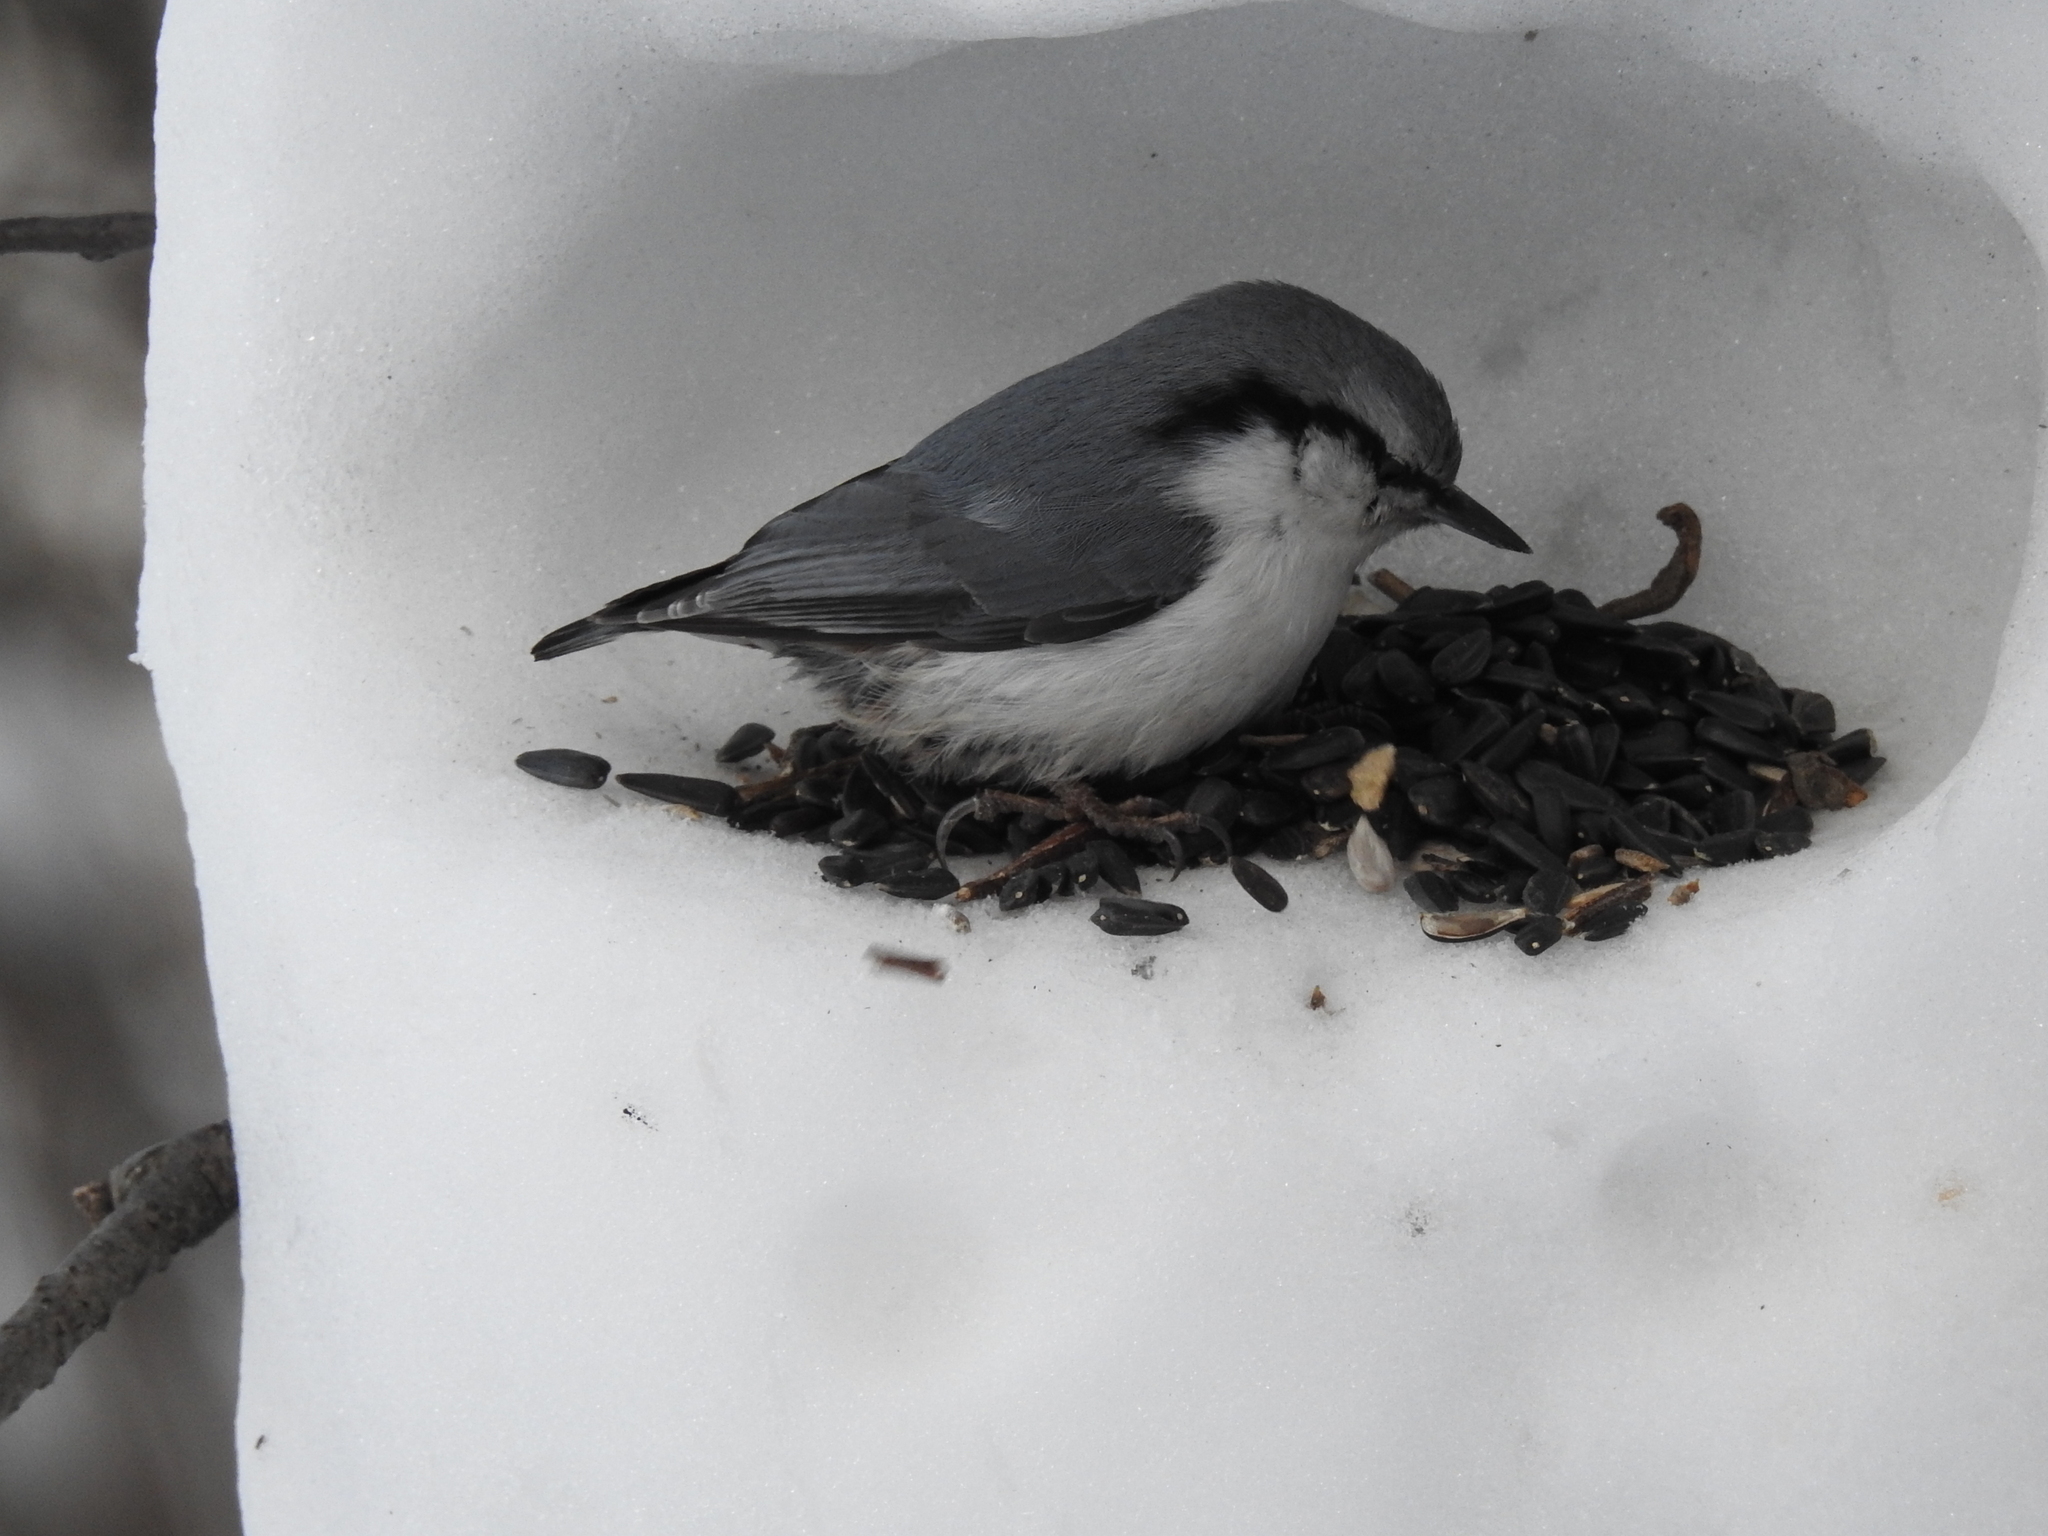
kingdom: Animalia
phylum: Chordata
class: Aves
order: Passeriformes
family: Sittidae
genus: Sitta
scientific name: Sitta europaea
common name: Eurasian nuthatch
